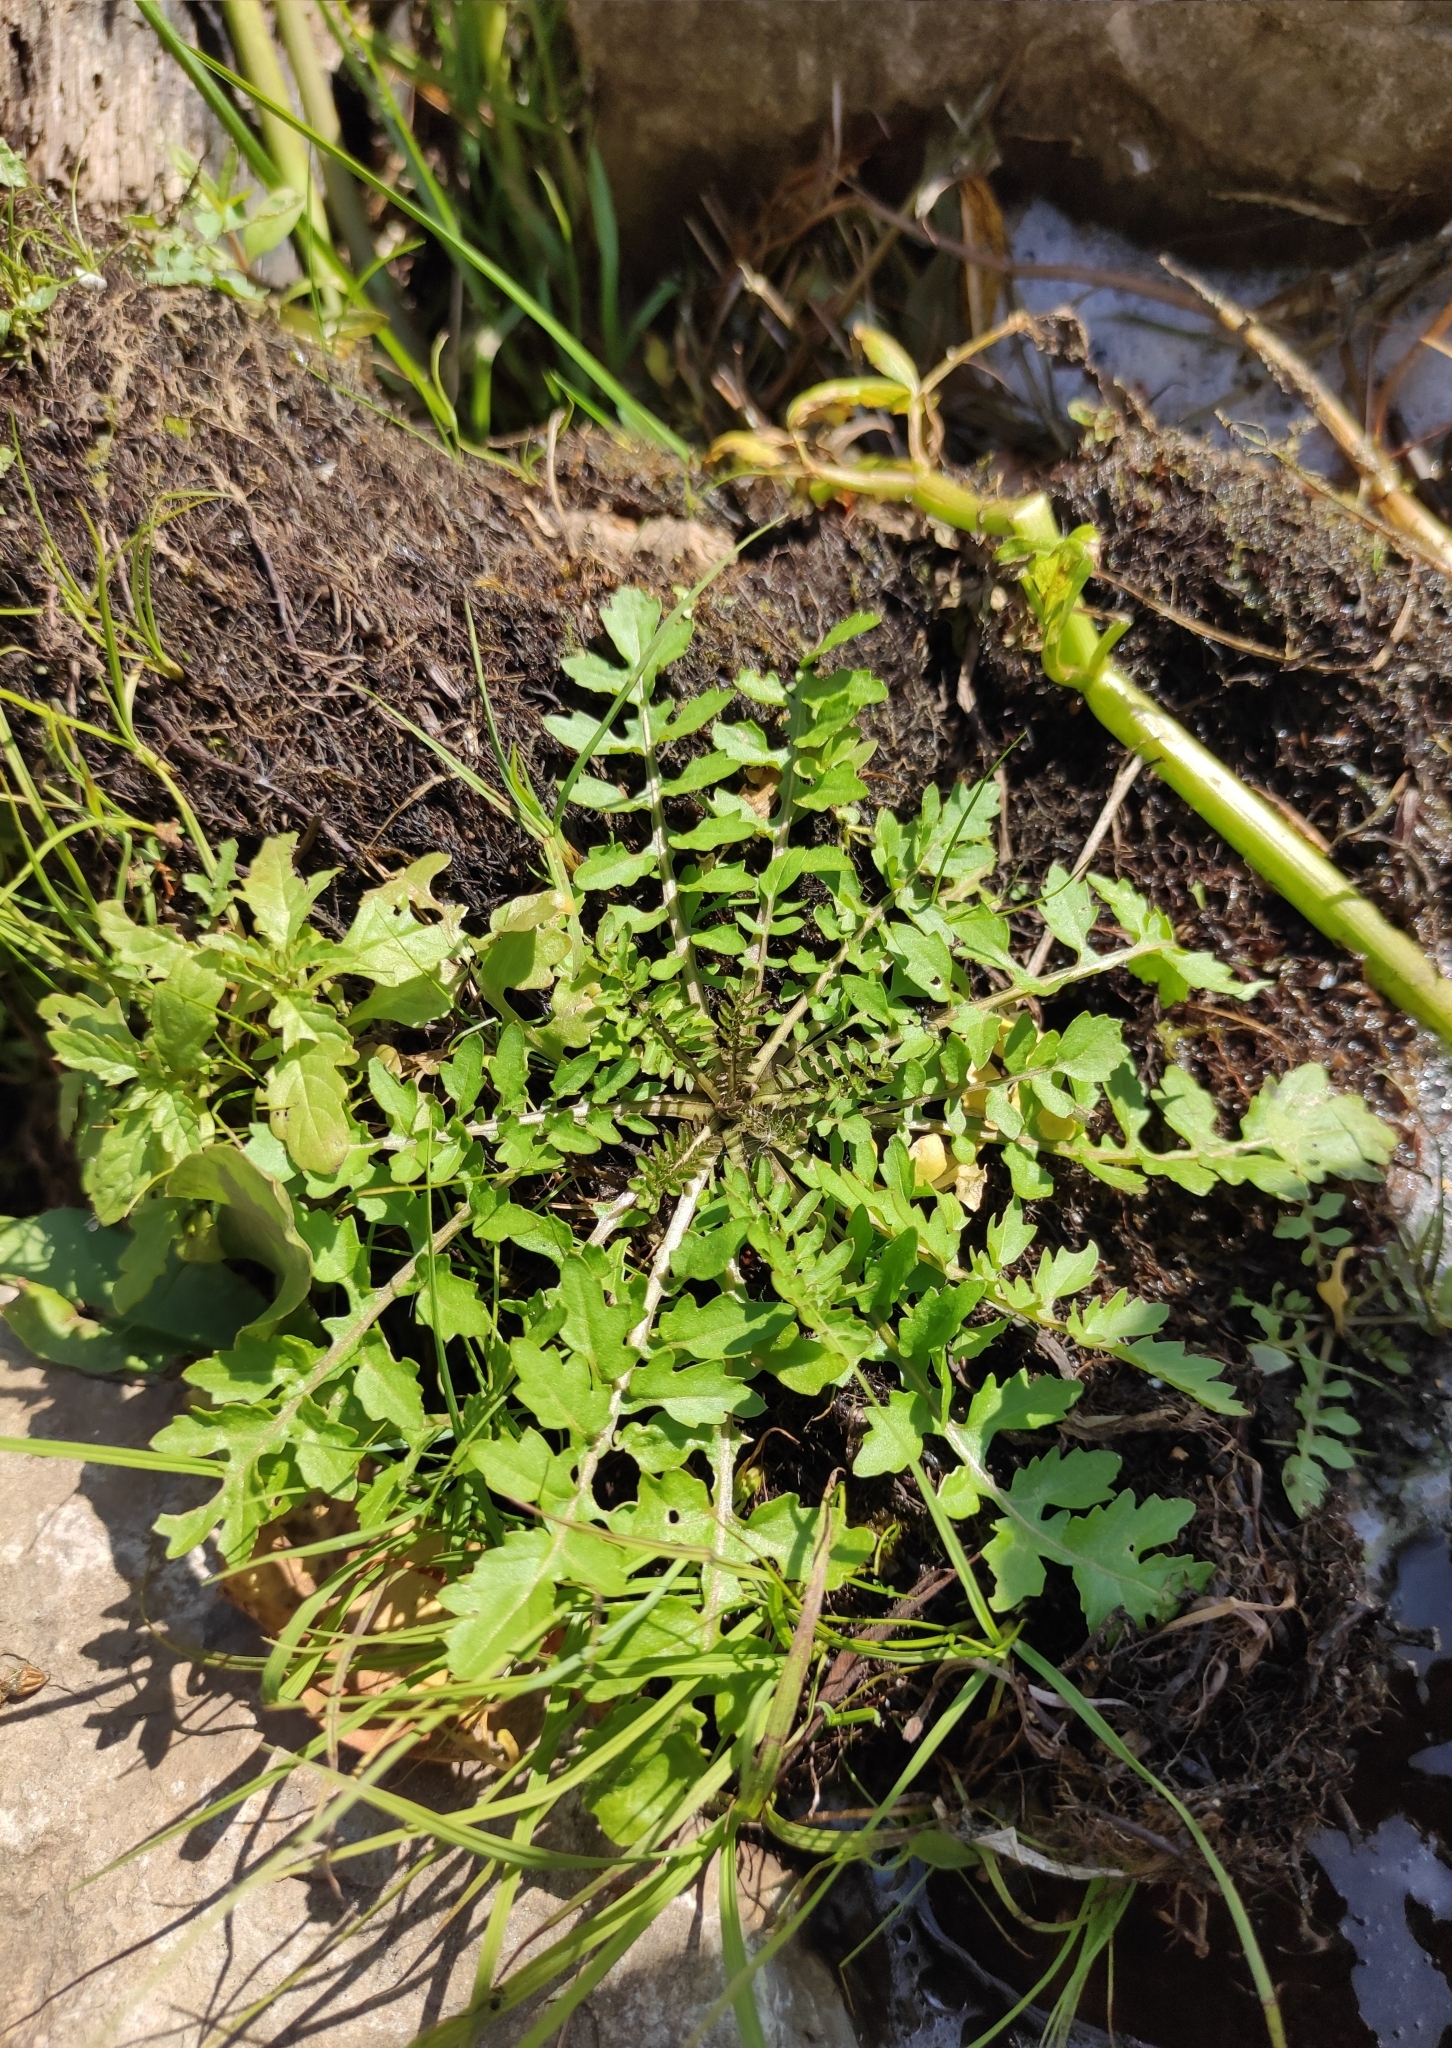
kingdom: Plantae
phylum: Tracheophyta
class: Magnoliopsida
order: Brassicales
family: Brassicaceae
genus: Rorippa
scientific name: Rorippa palustris
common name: Marsh yellow-cress
